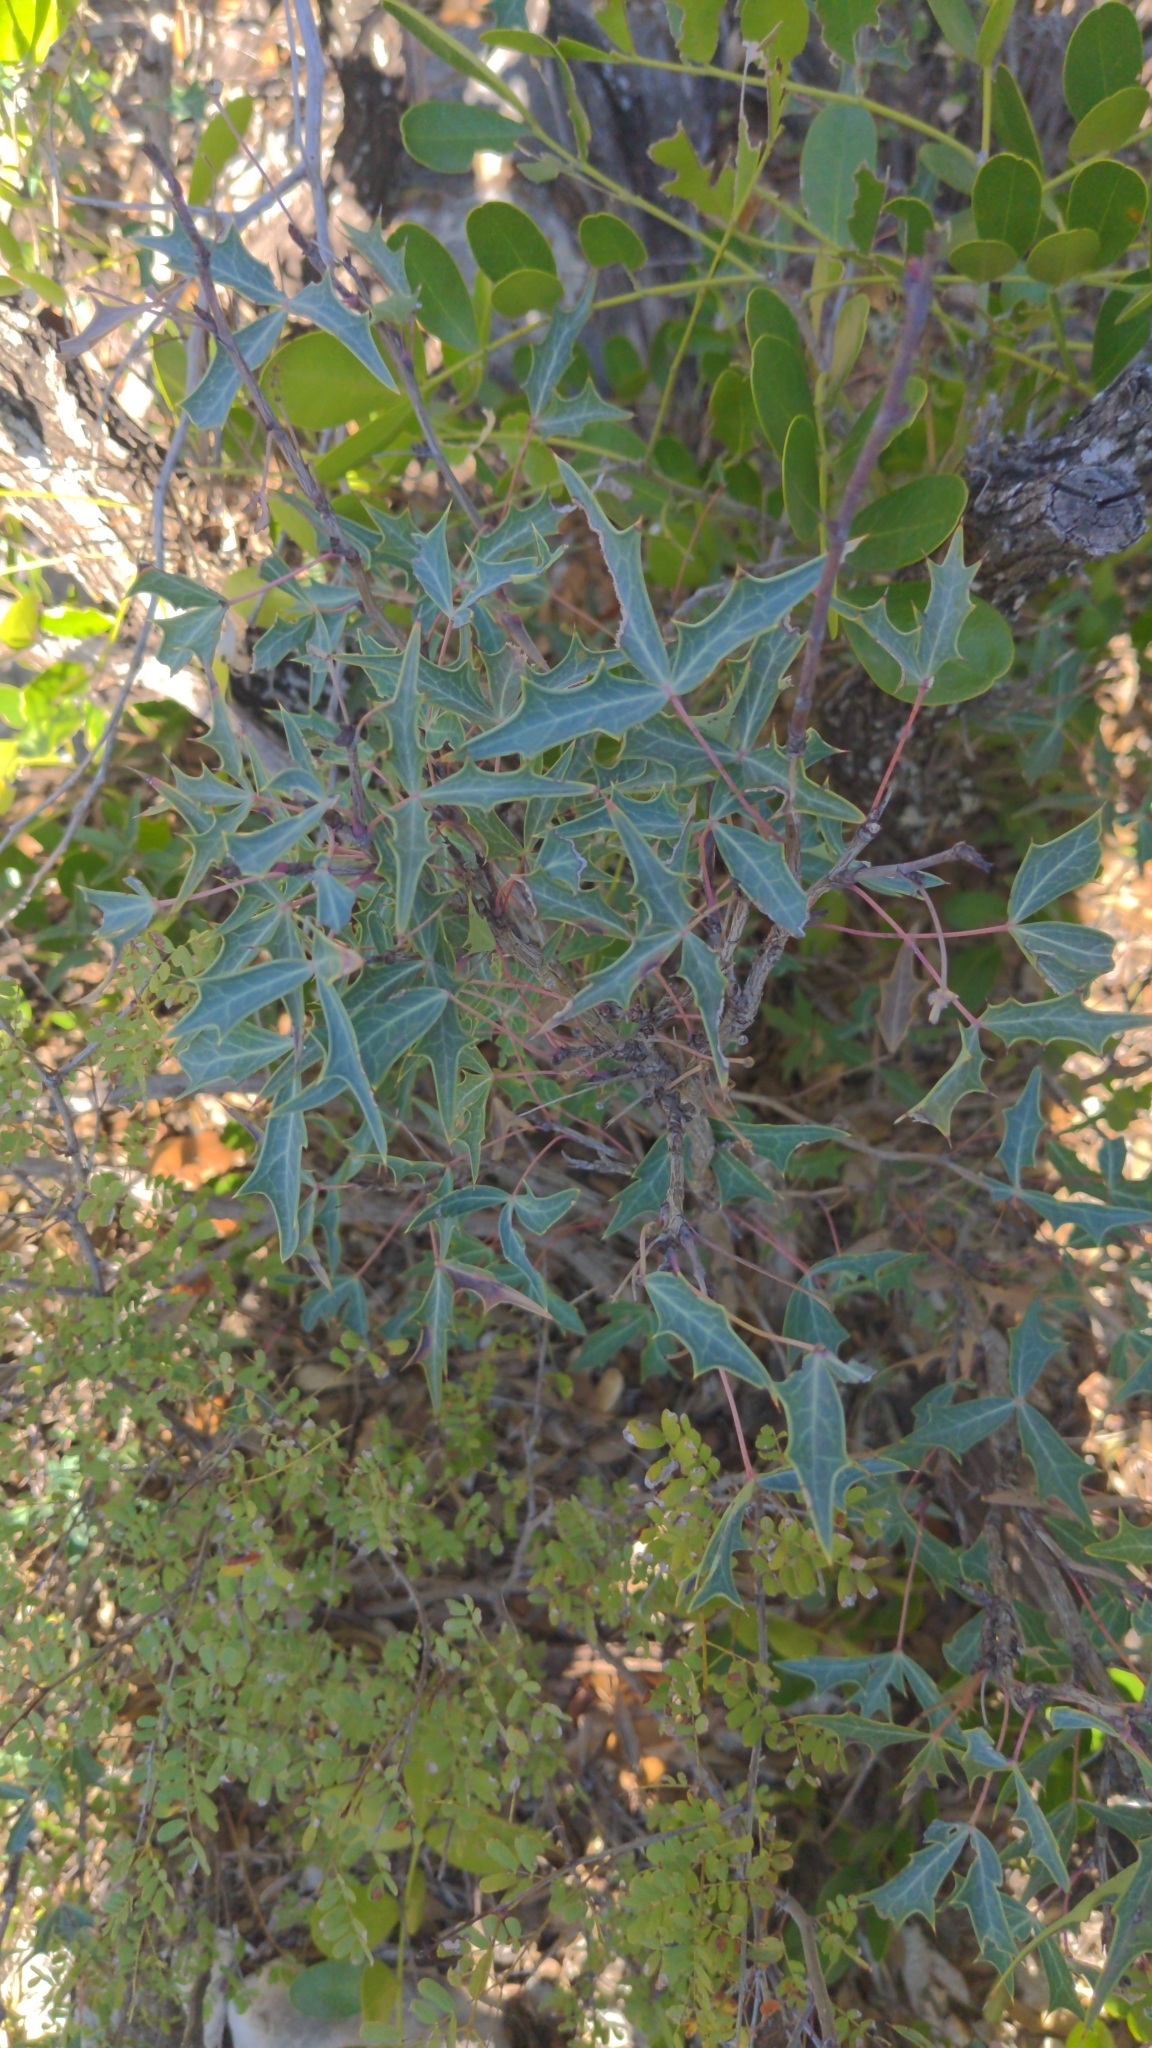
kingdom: Plantae
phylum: Tracheophyta
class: Magnoliopsida
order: Ranunculales
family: Berberidaceae
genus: Alloberberis
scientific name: Alloberberis trifoliolata
